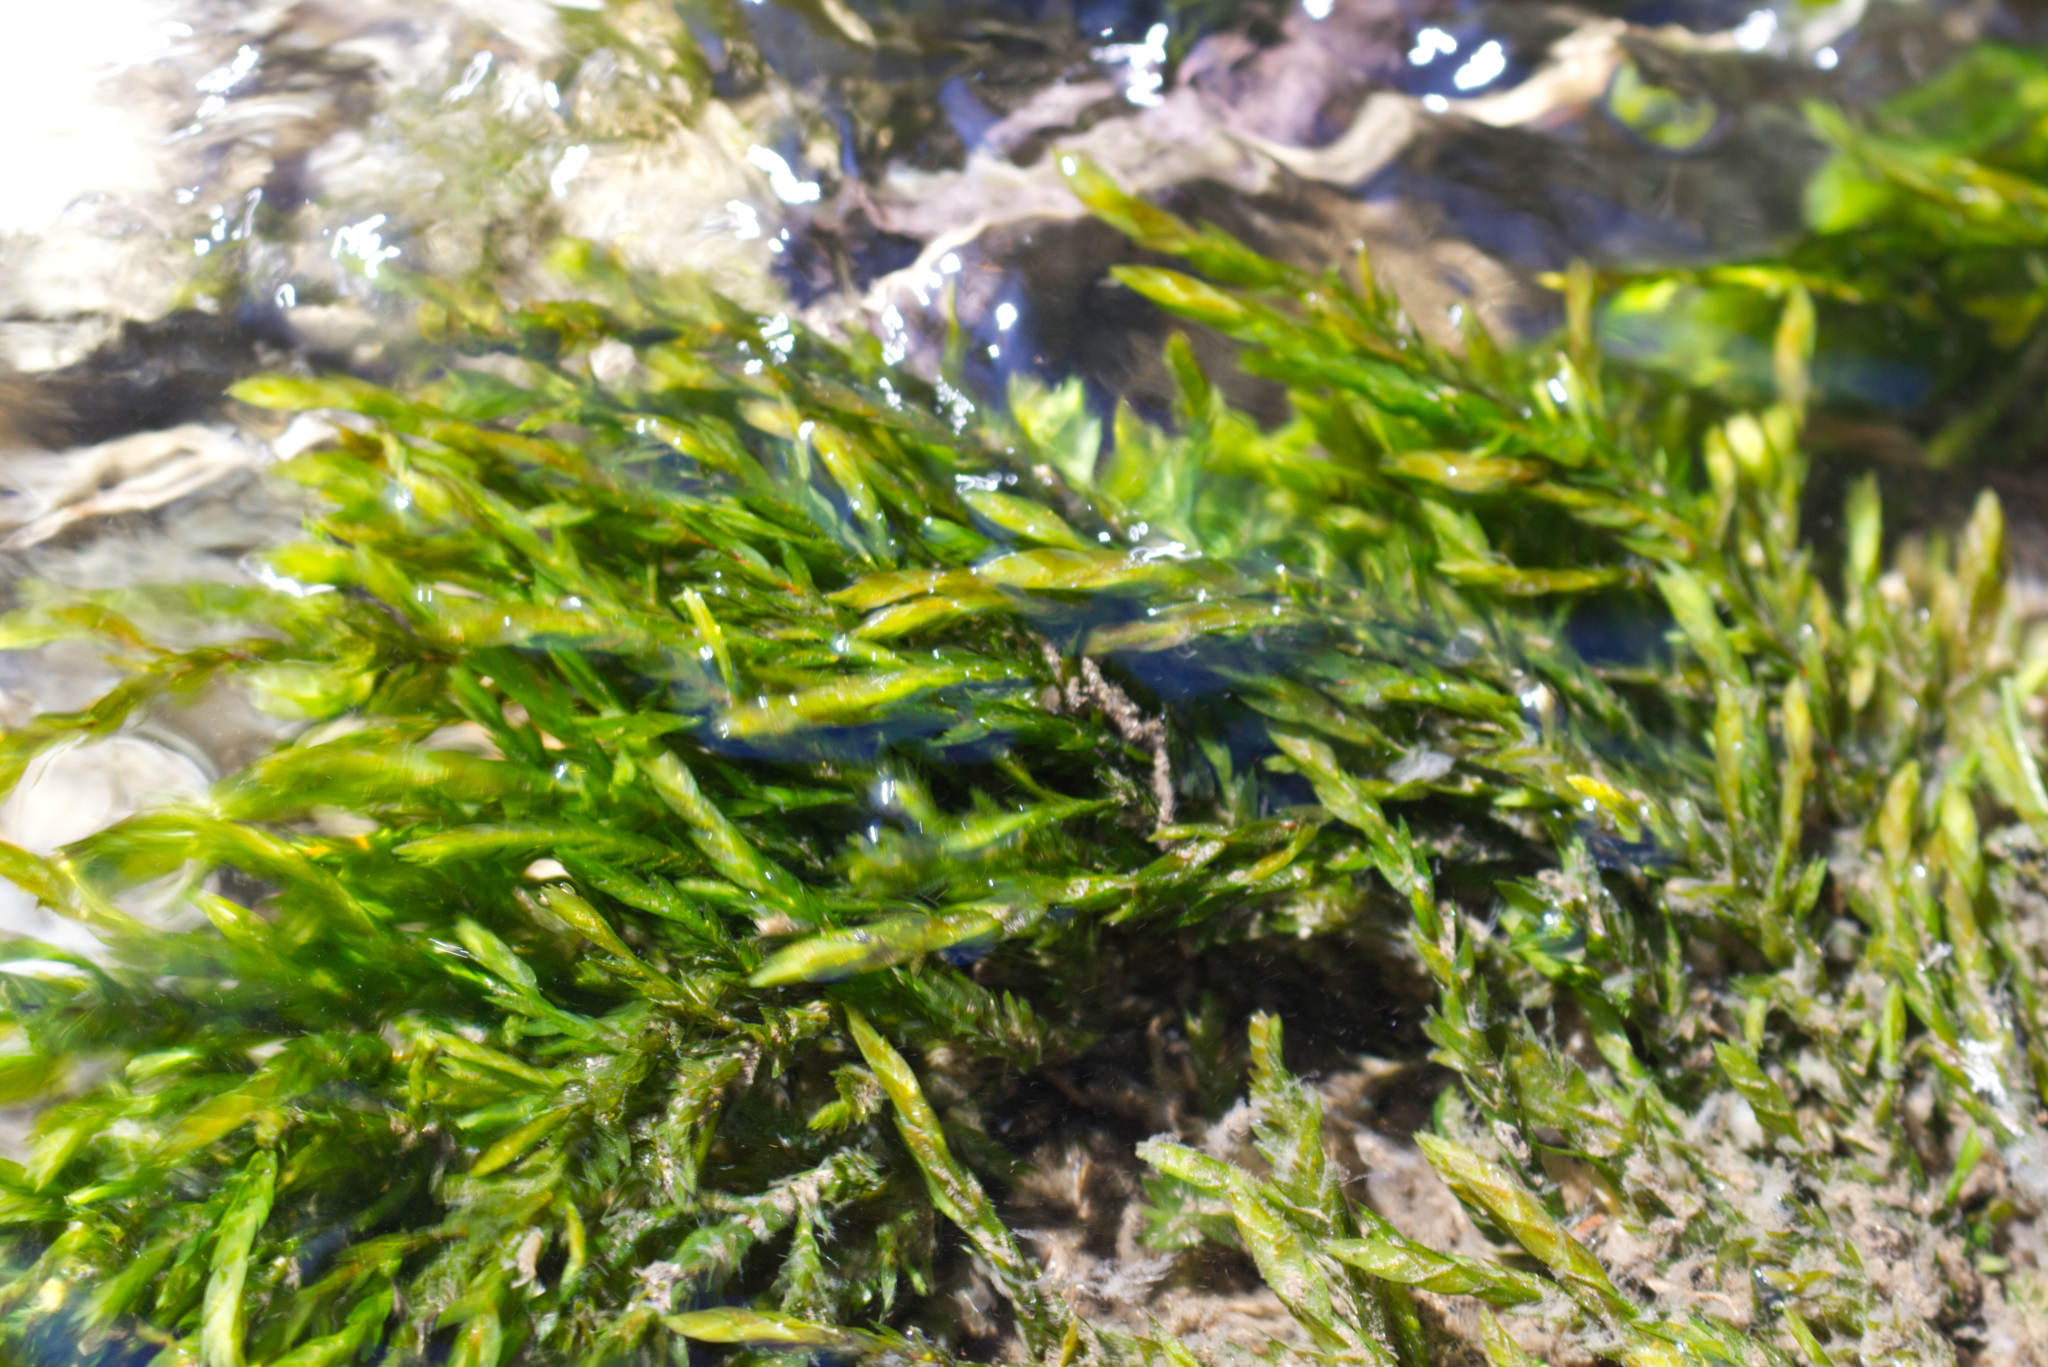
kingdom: Plantae
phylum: Bryophyta
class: Bryopsida
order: Hypnales
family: Fontinalaceae
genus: Fontinalis
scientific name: Fontinalis antipyretica
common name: Greater water-moss
